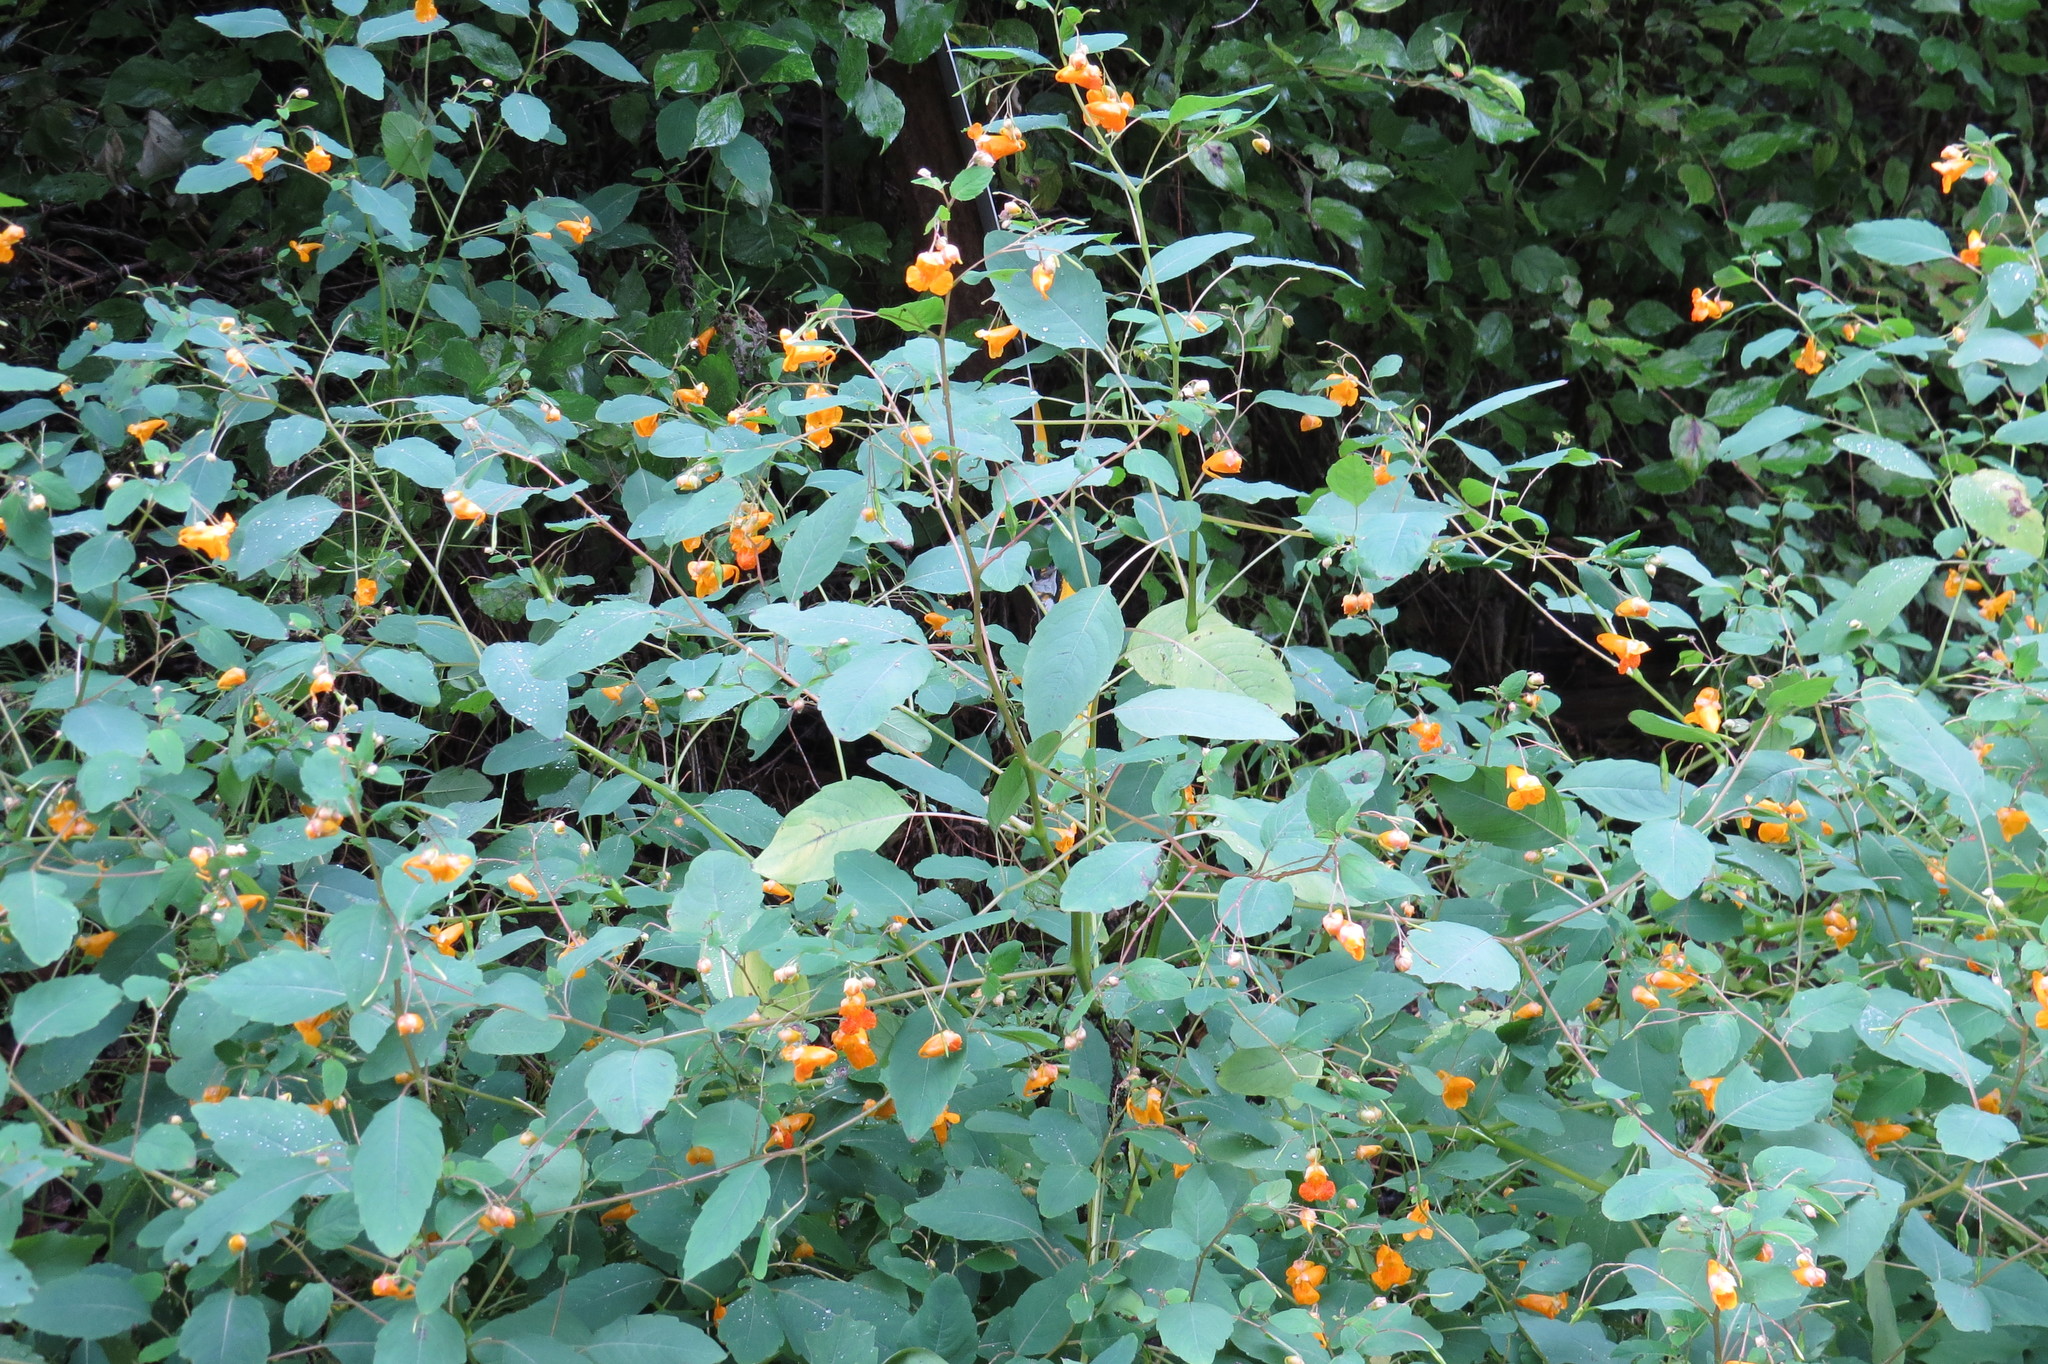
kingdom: Plantae
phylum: Tracheophyta
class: Magnoliopsida
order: Ericales
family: Balsaminaceae
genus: Impatiens
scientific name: Impatiens capensis
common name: Orange balsam
